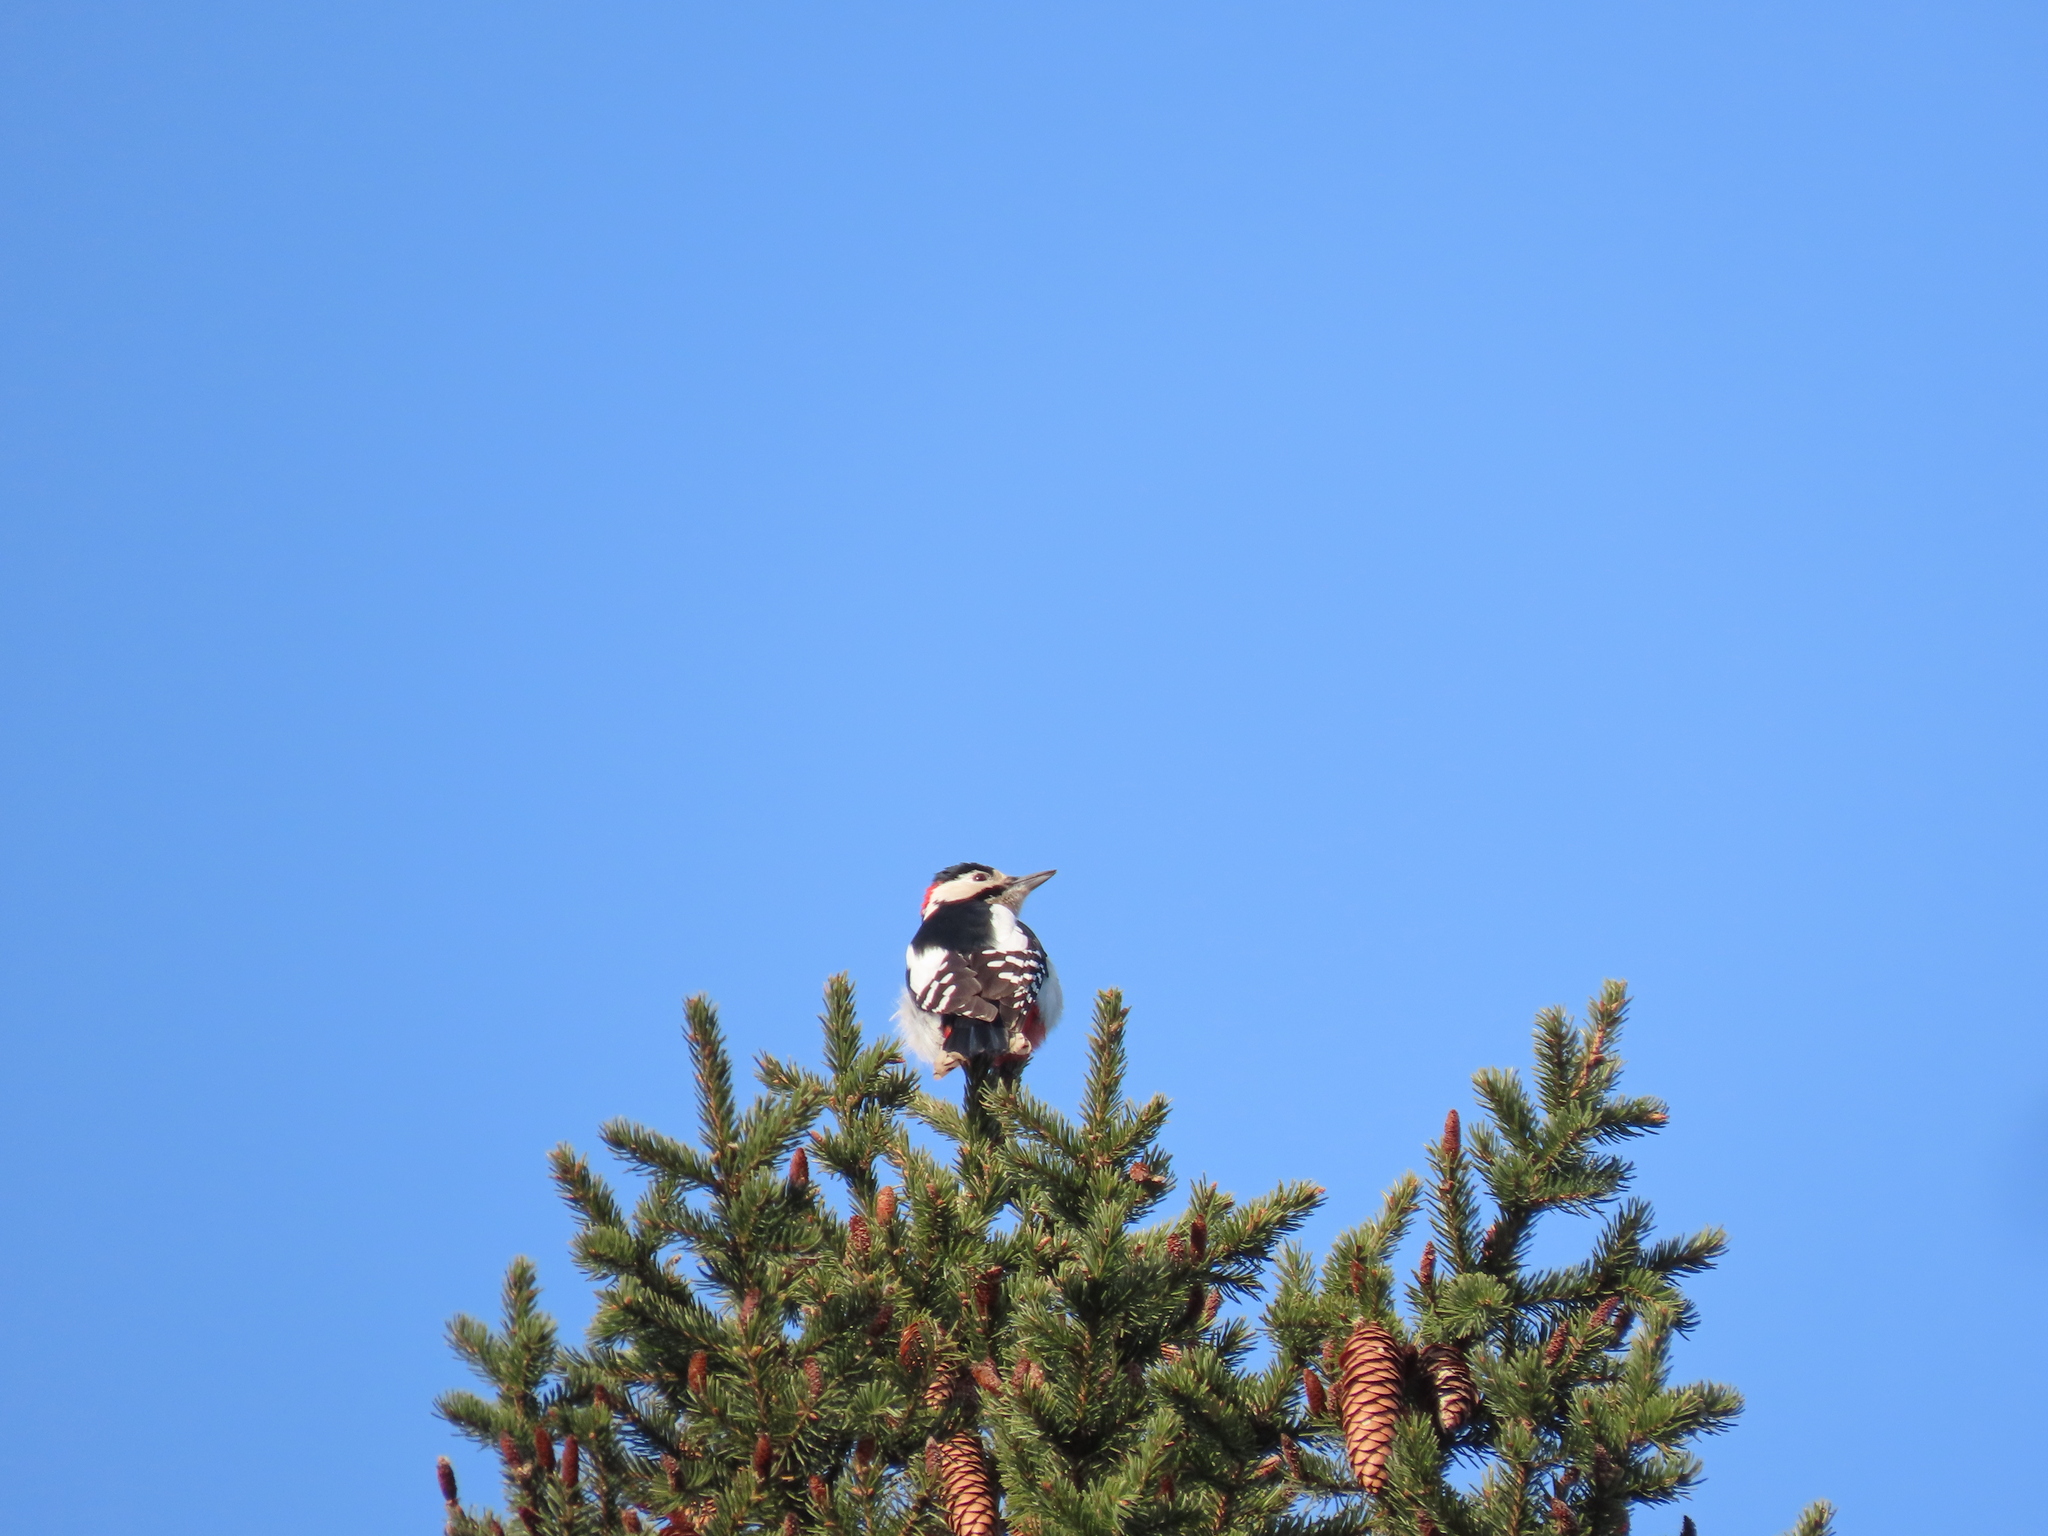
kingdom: Animalia
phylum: Chordata
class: Aves
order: Piciformes
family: Picidae
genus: Dendrocopos
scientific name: Dendrocopos major
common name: Great spotted woodpecker
